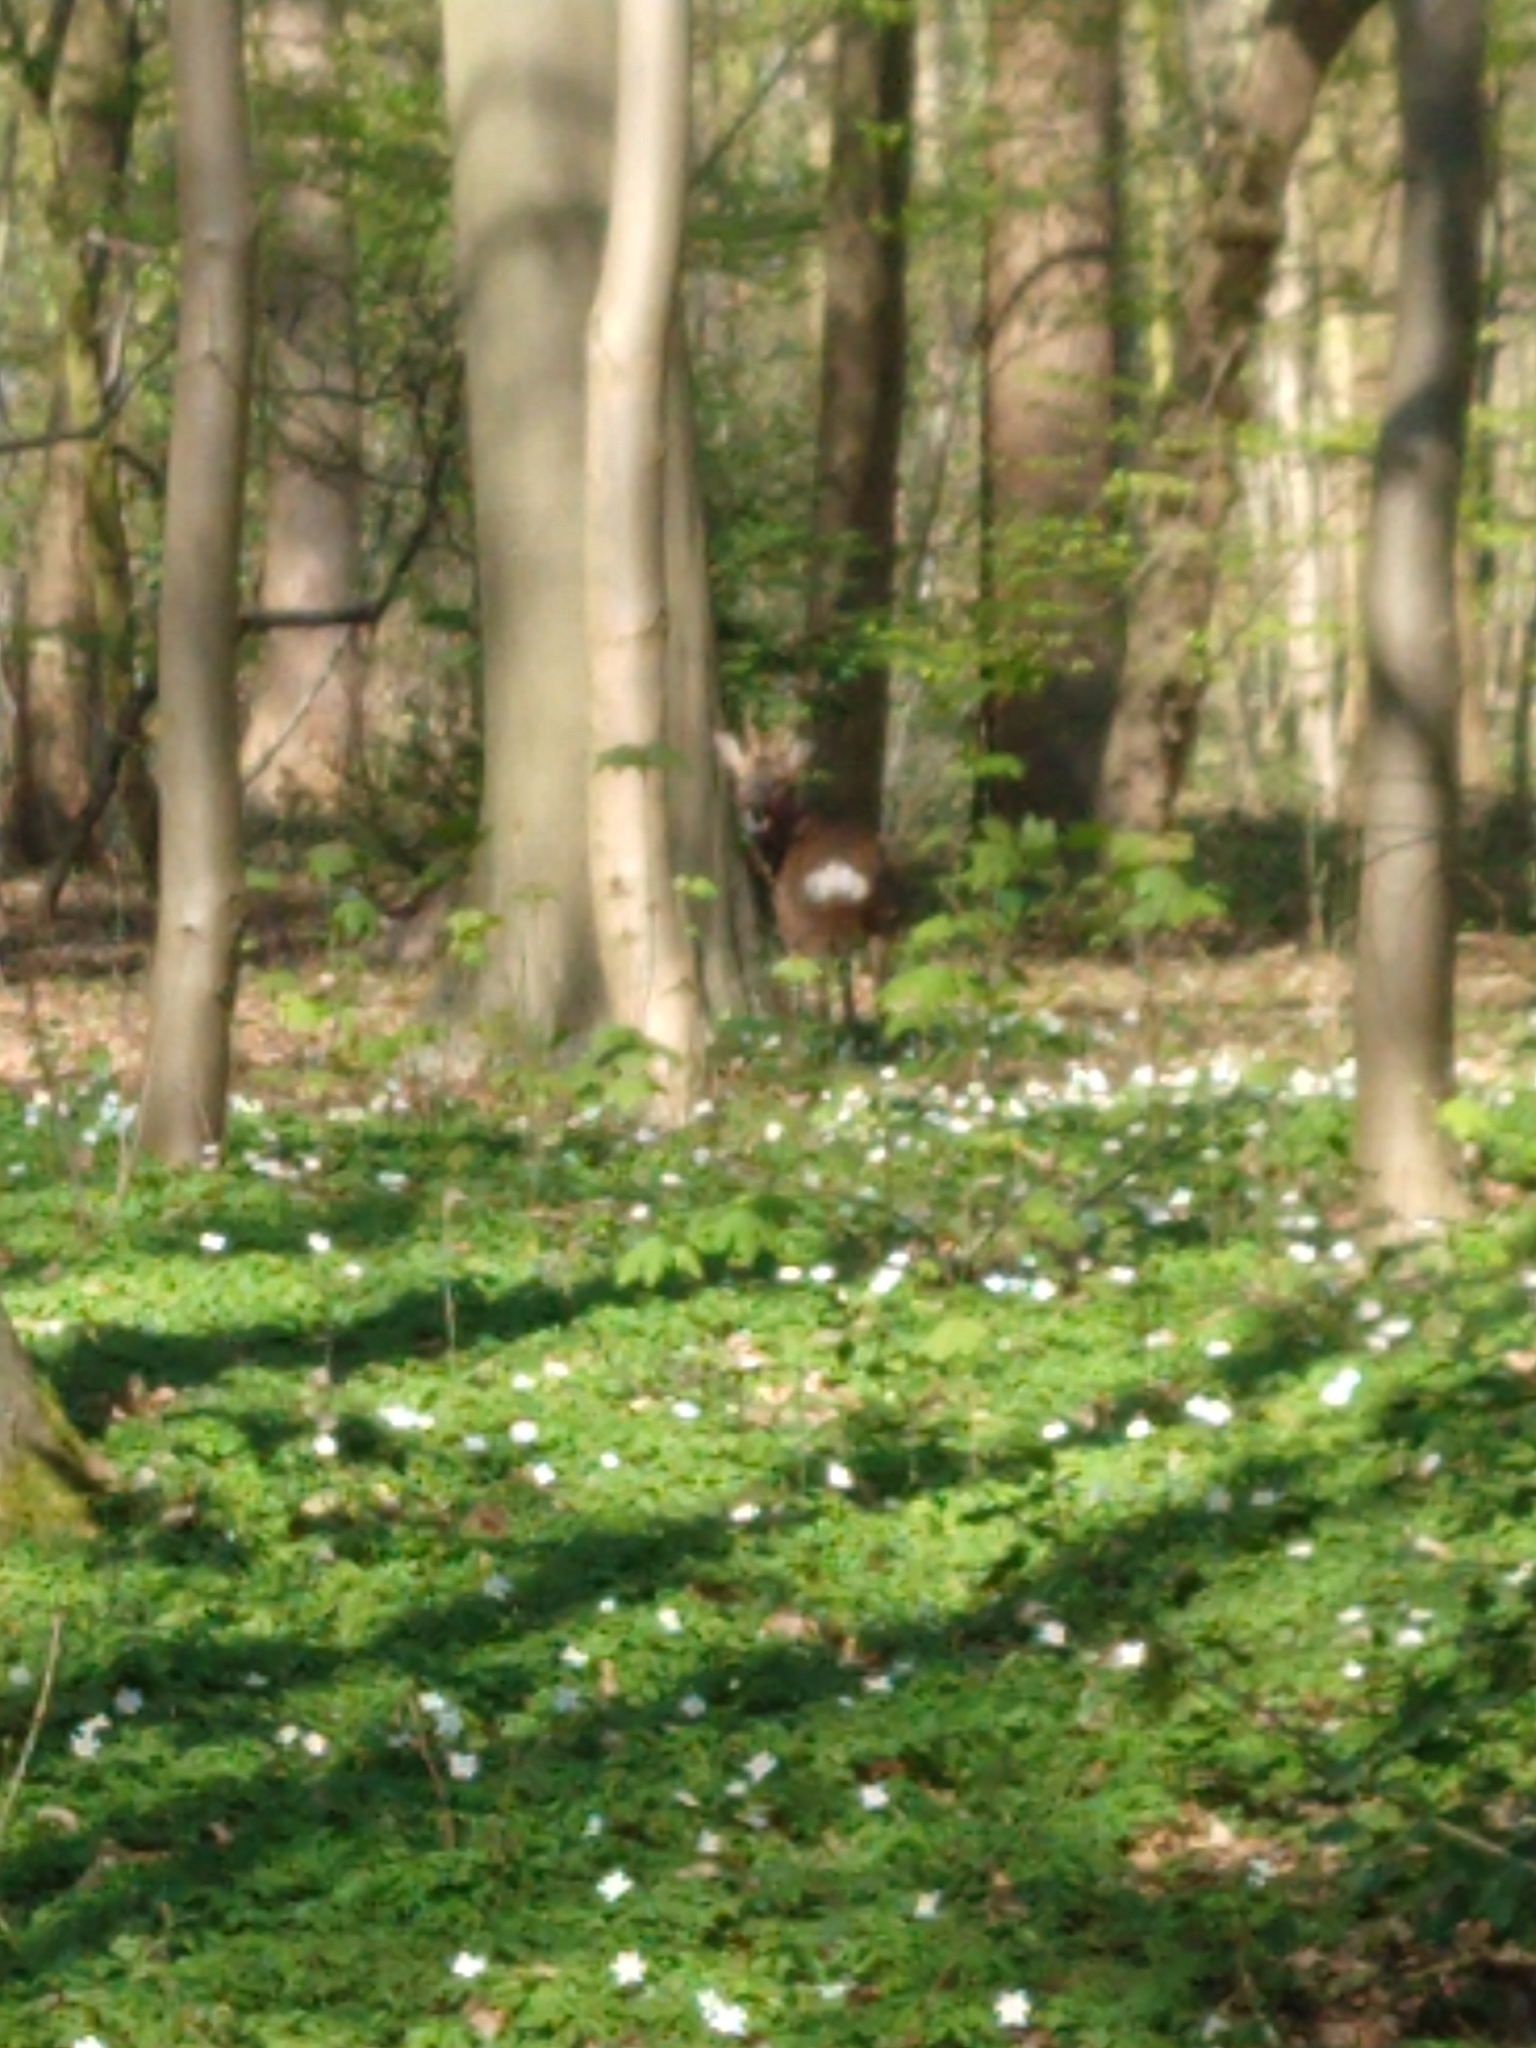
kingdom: Animalia
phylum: Chordata
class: Mammalia
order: Artiodactyla
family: Cervidae
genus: Capreolus
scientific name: Capreolus capreolus
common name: Western roe deer
